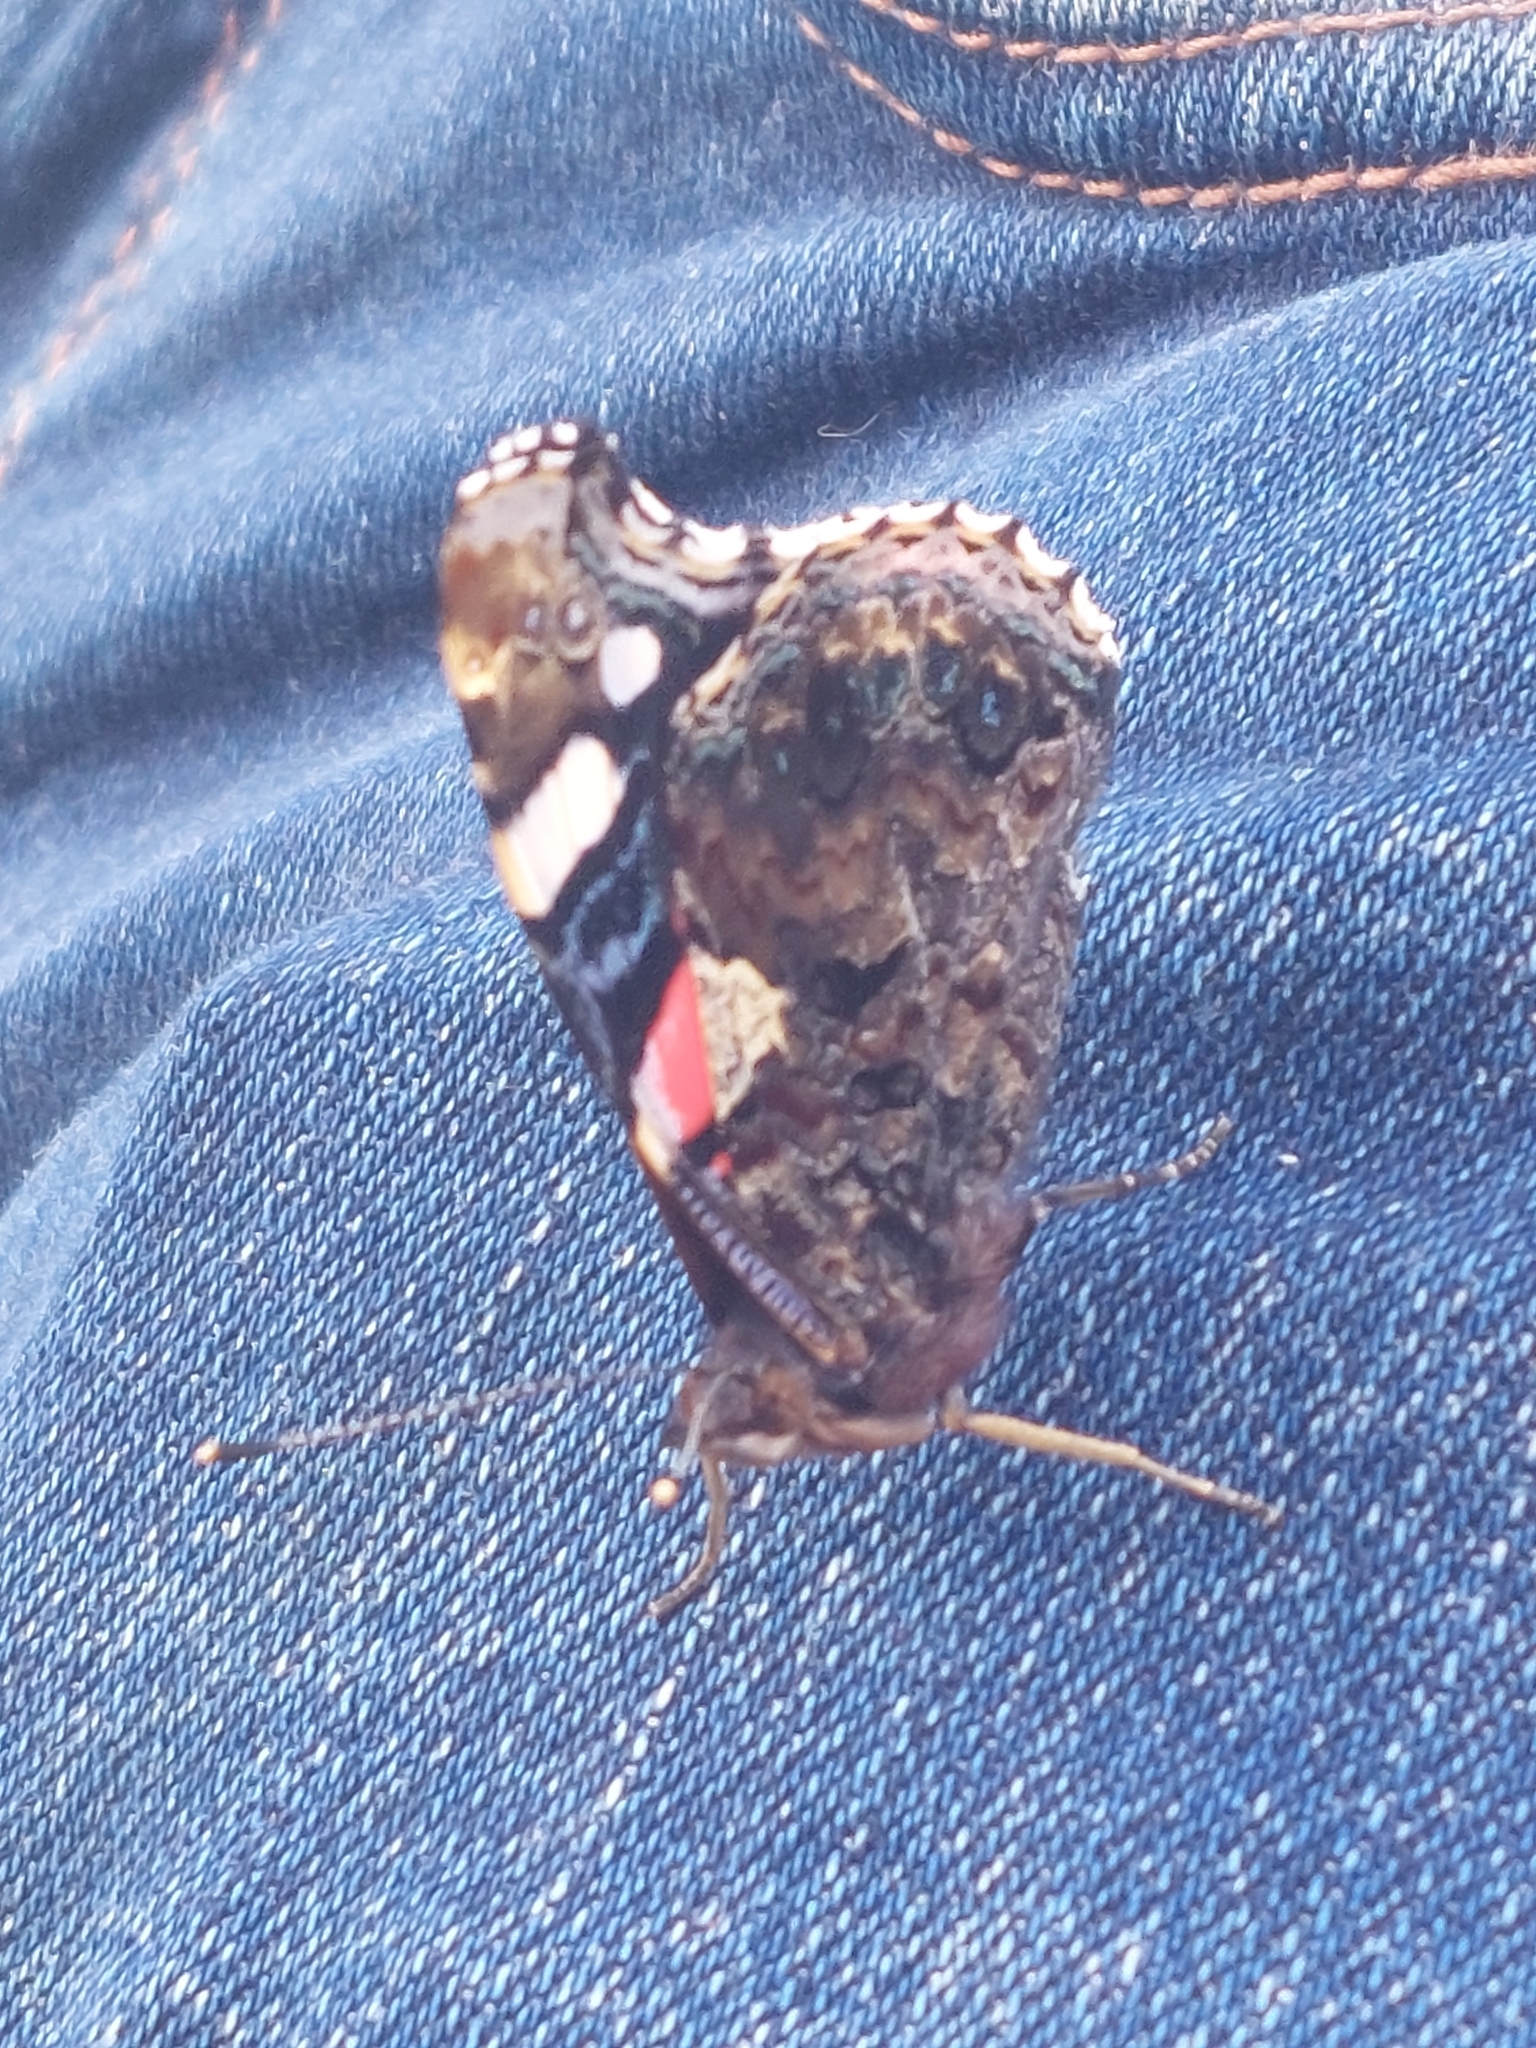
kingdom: Animalia
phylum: Arthropoda
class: Insecta
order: Lepidoptera
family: Nymphalidae
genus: Vanessa
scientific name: Vanessa atalanta
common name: Red admiral
